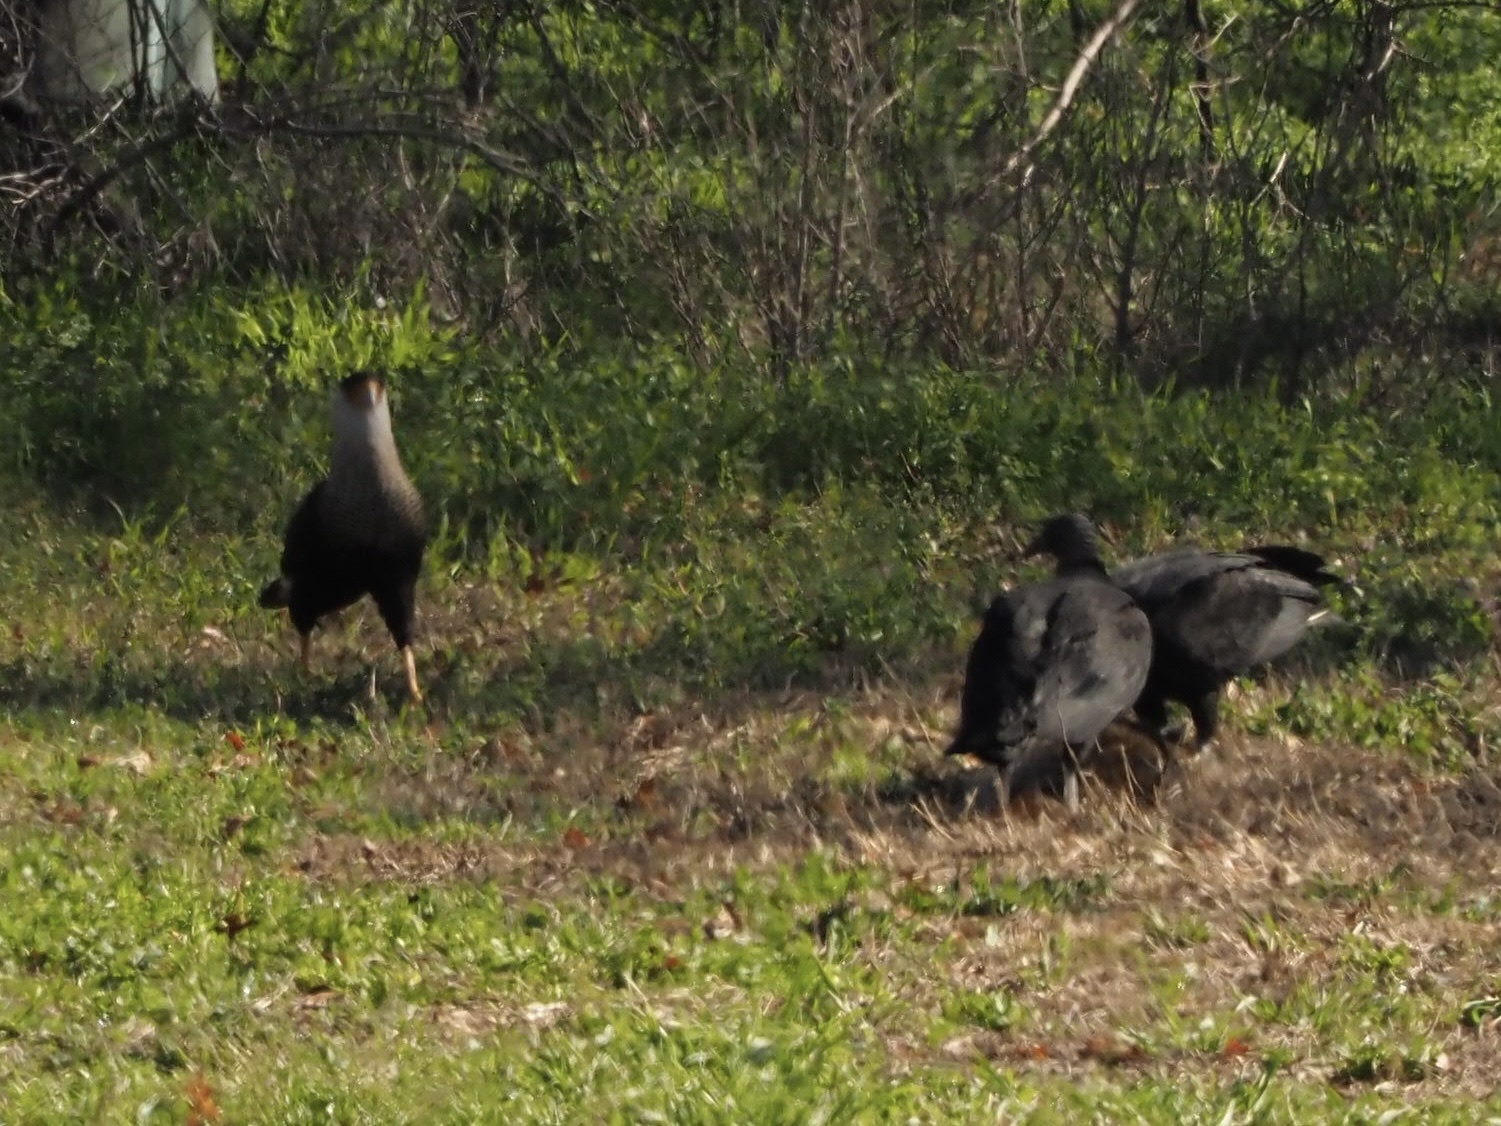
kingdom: Animalia
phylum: Chordata
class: Aves
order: Falconiformes
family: Falconidae
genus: Caracara
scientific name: Caracara plancus
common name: Southern caracara
